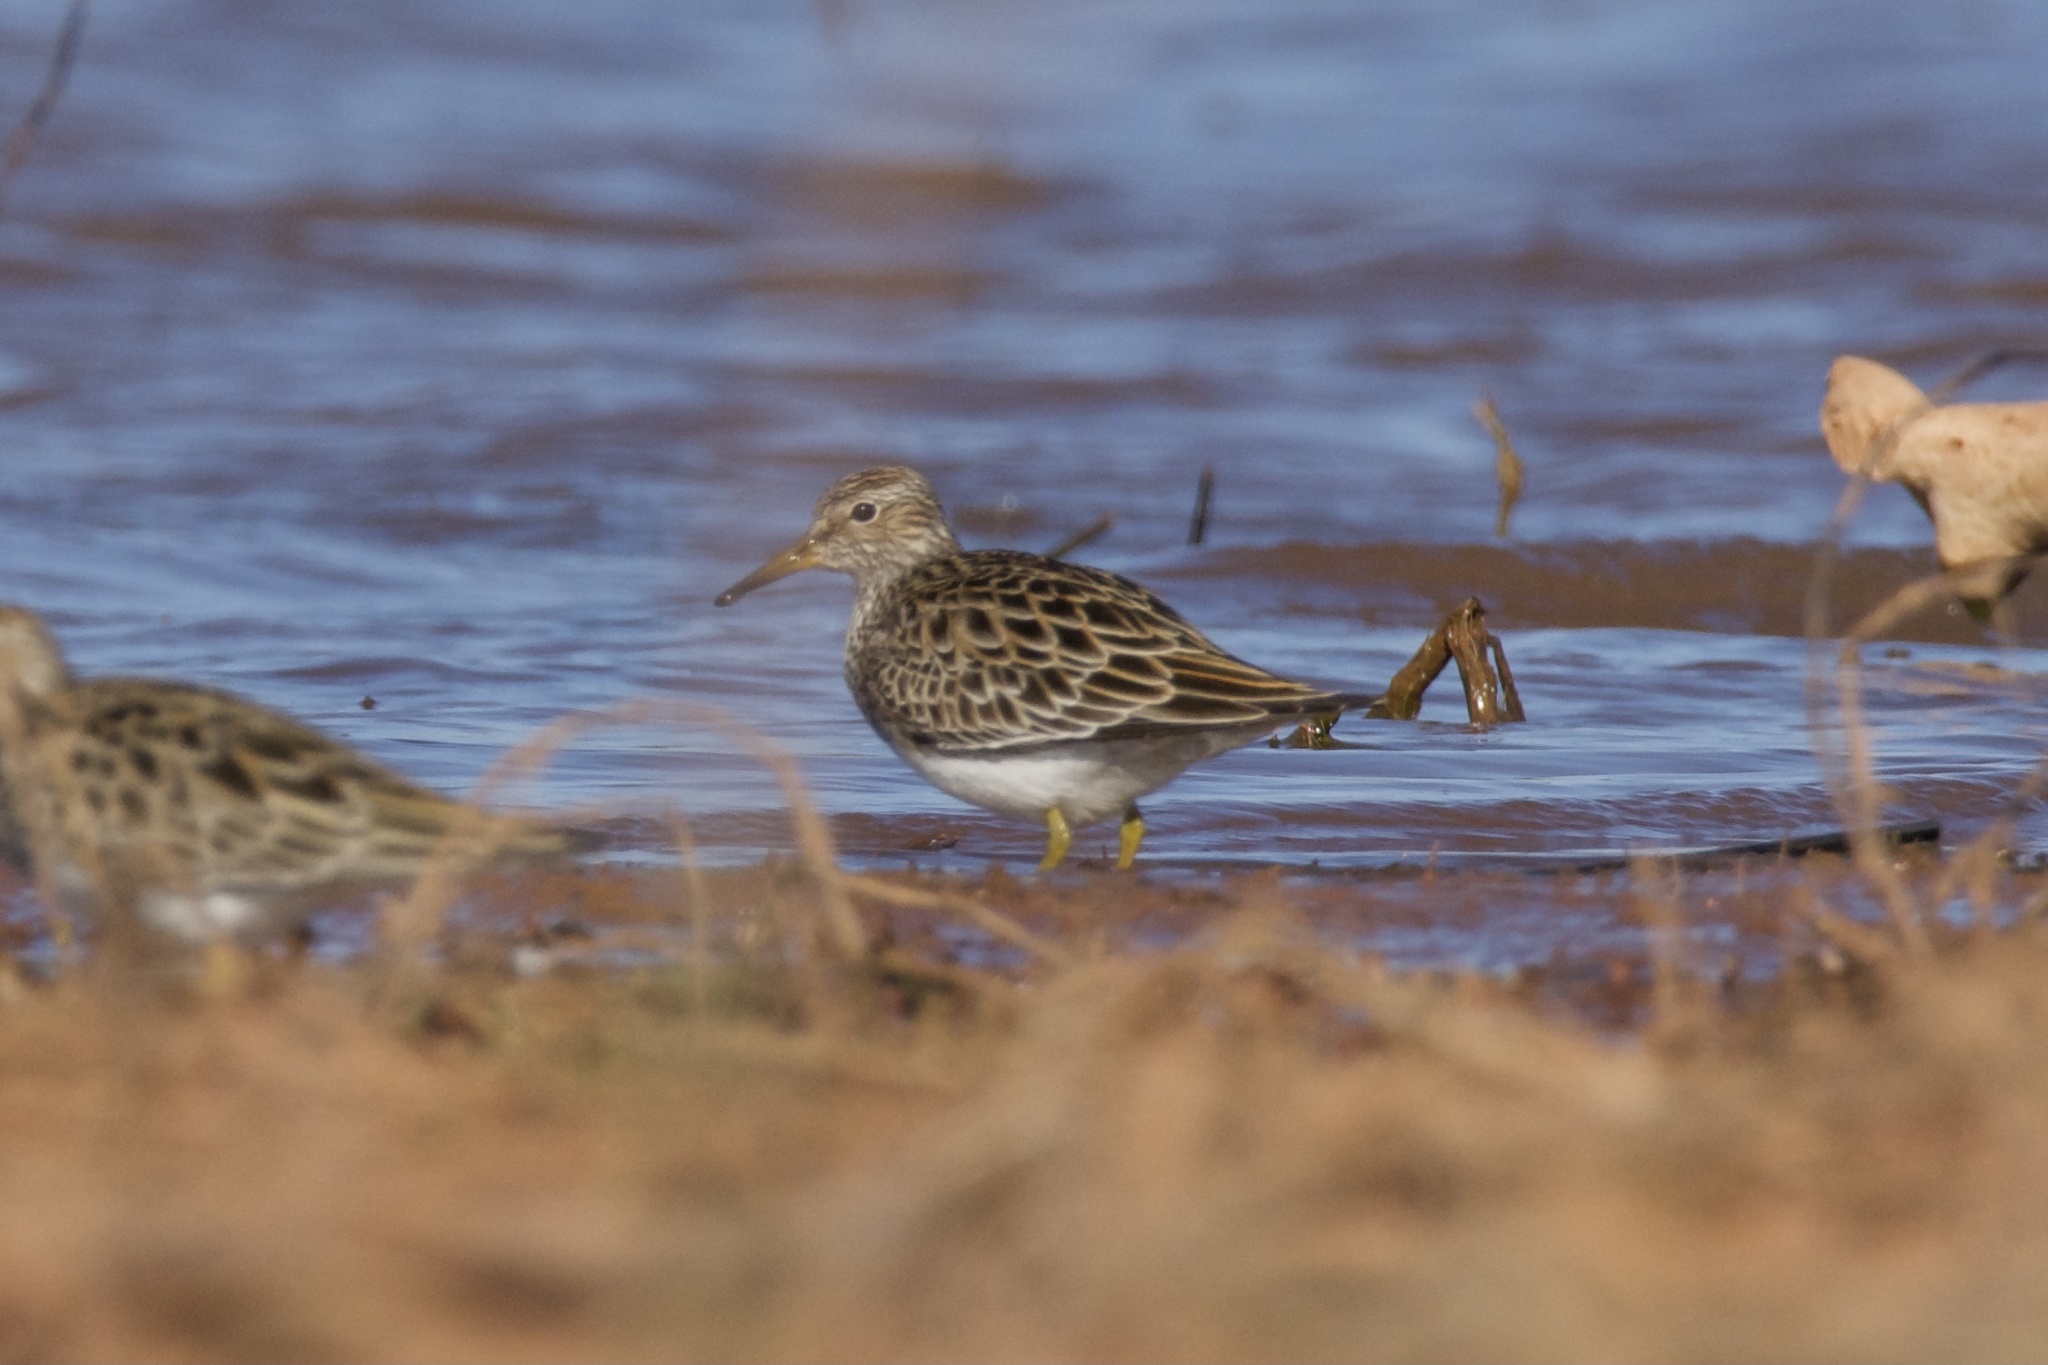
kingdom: Animalia
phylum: Chordata
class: Aves
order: Charadriiformes
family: Scolopacidae
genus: Calidris
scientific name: Calidris melanotos
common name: Pectoral sandpiper
